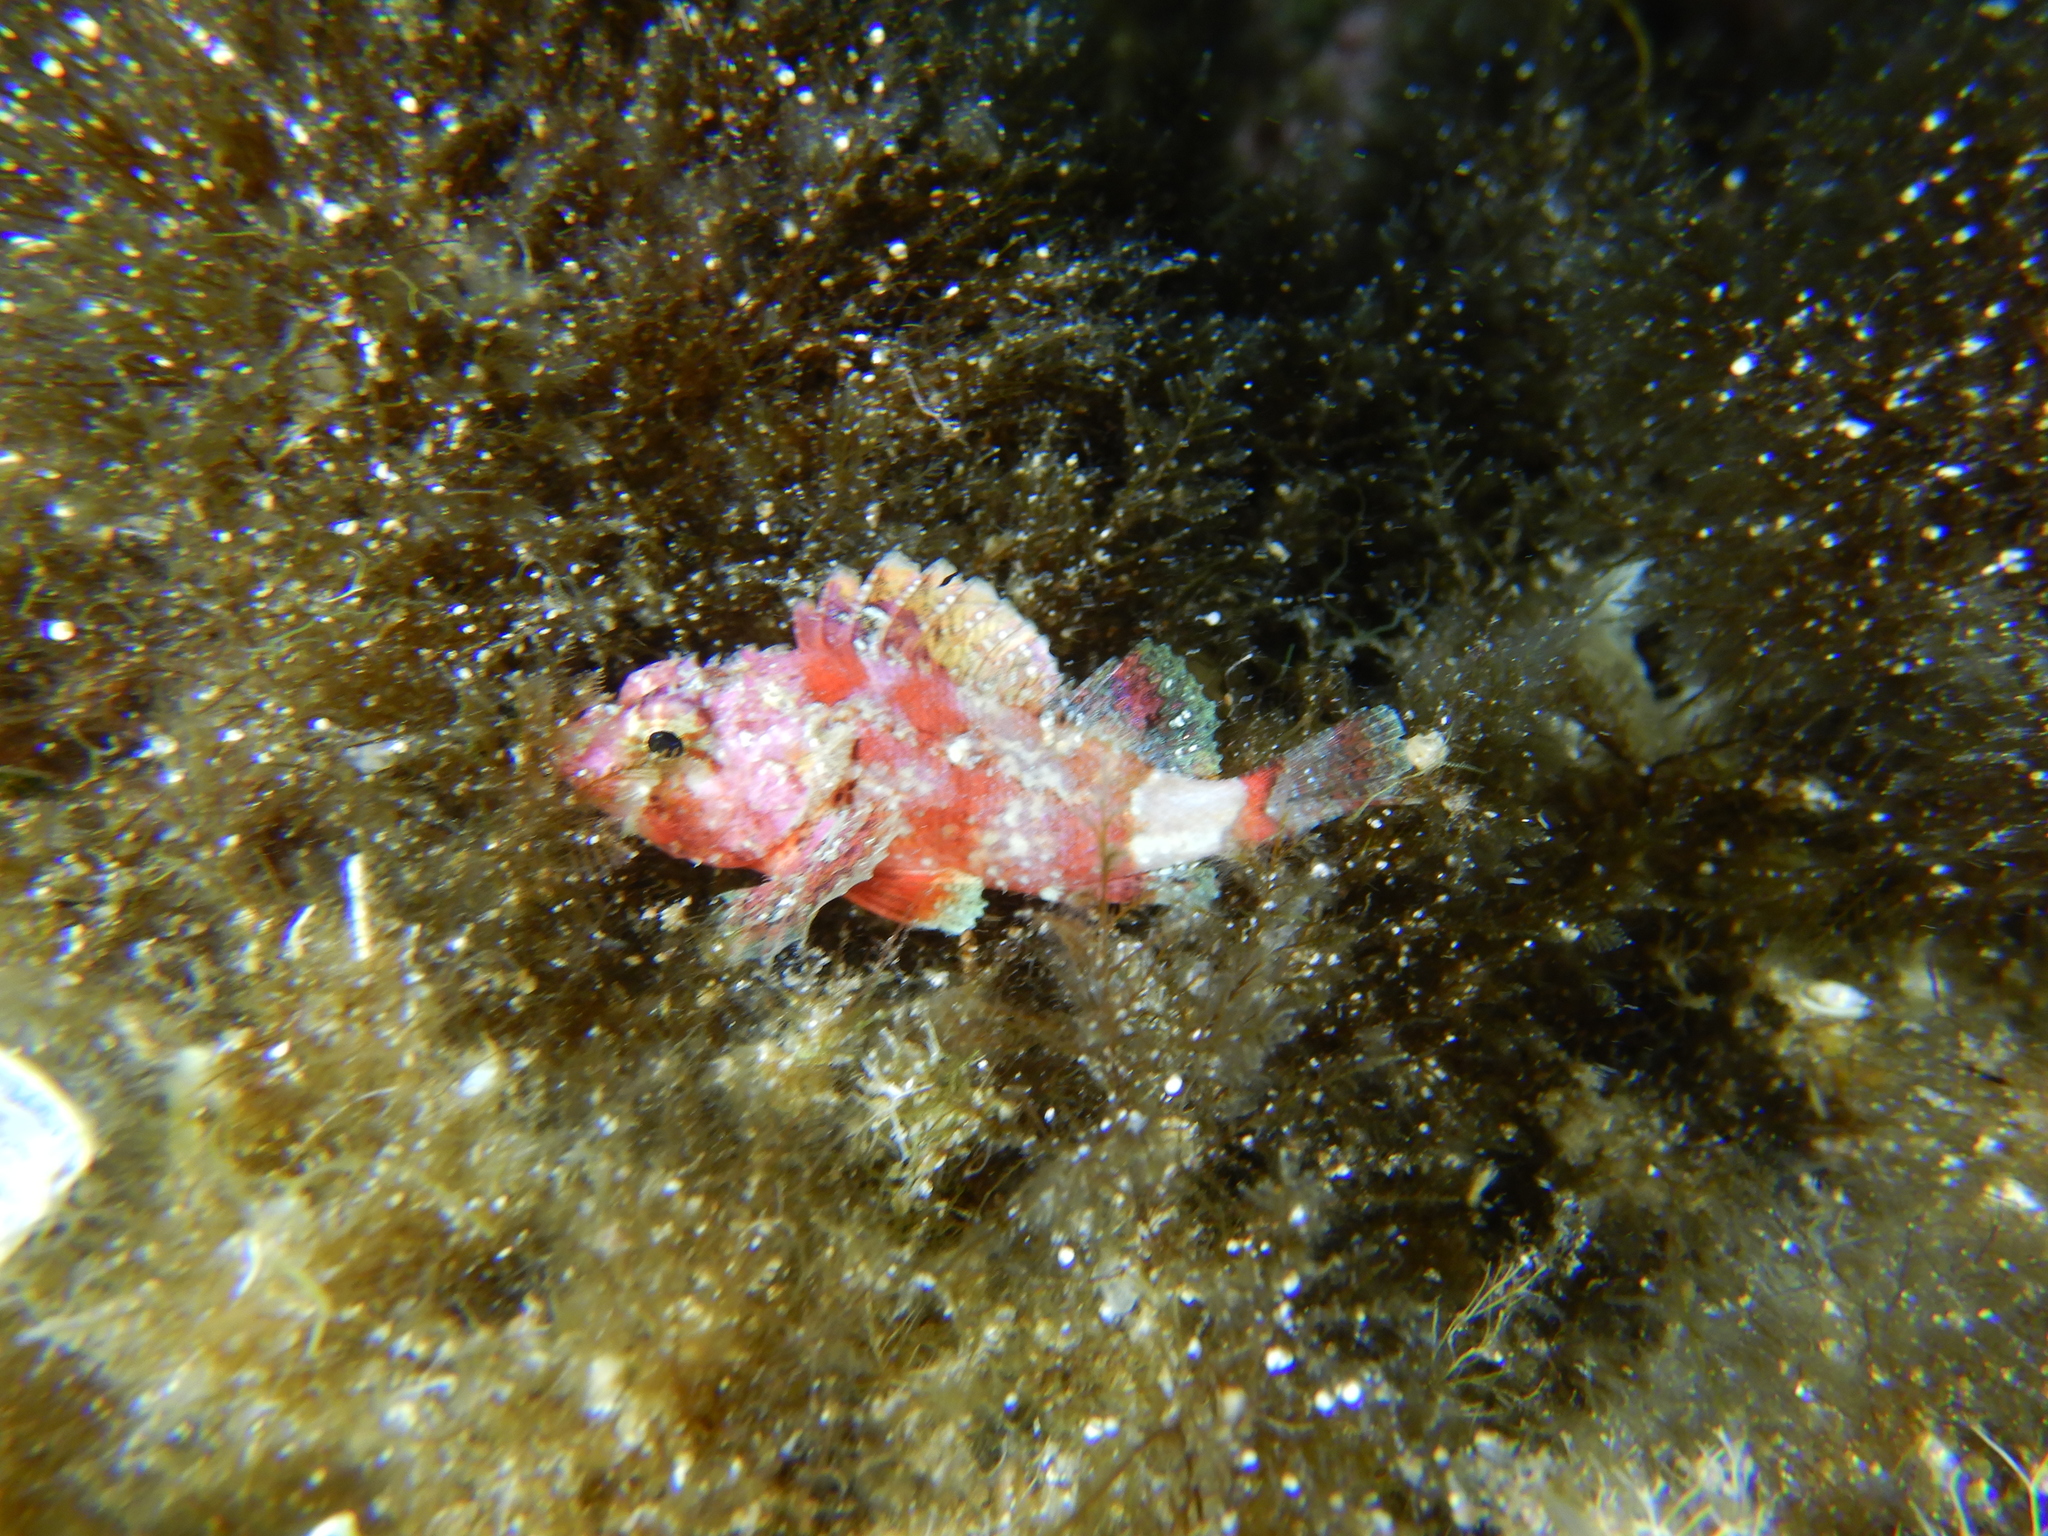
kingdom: Animalia
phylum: Chordata
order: Scorpaeniformes
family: Scorpaenidae
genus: Scorpaena
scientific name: Scorpaena notata
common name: Small red scorpionfish
